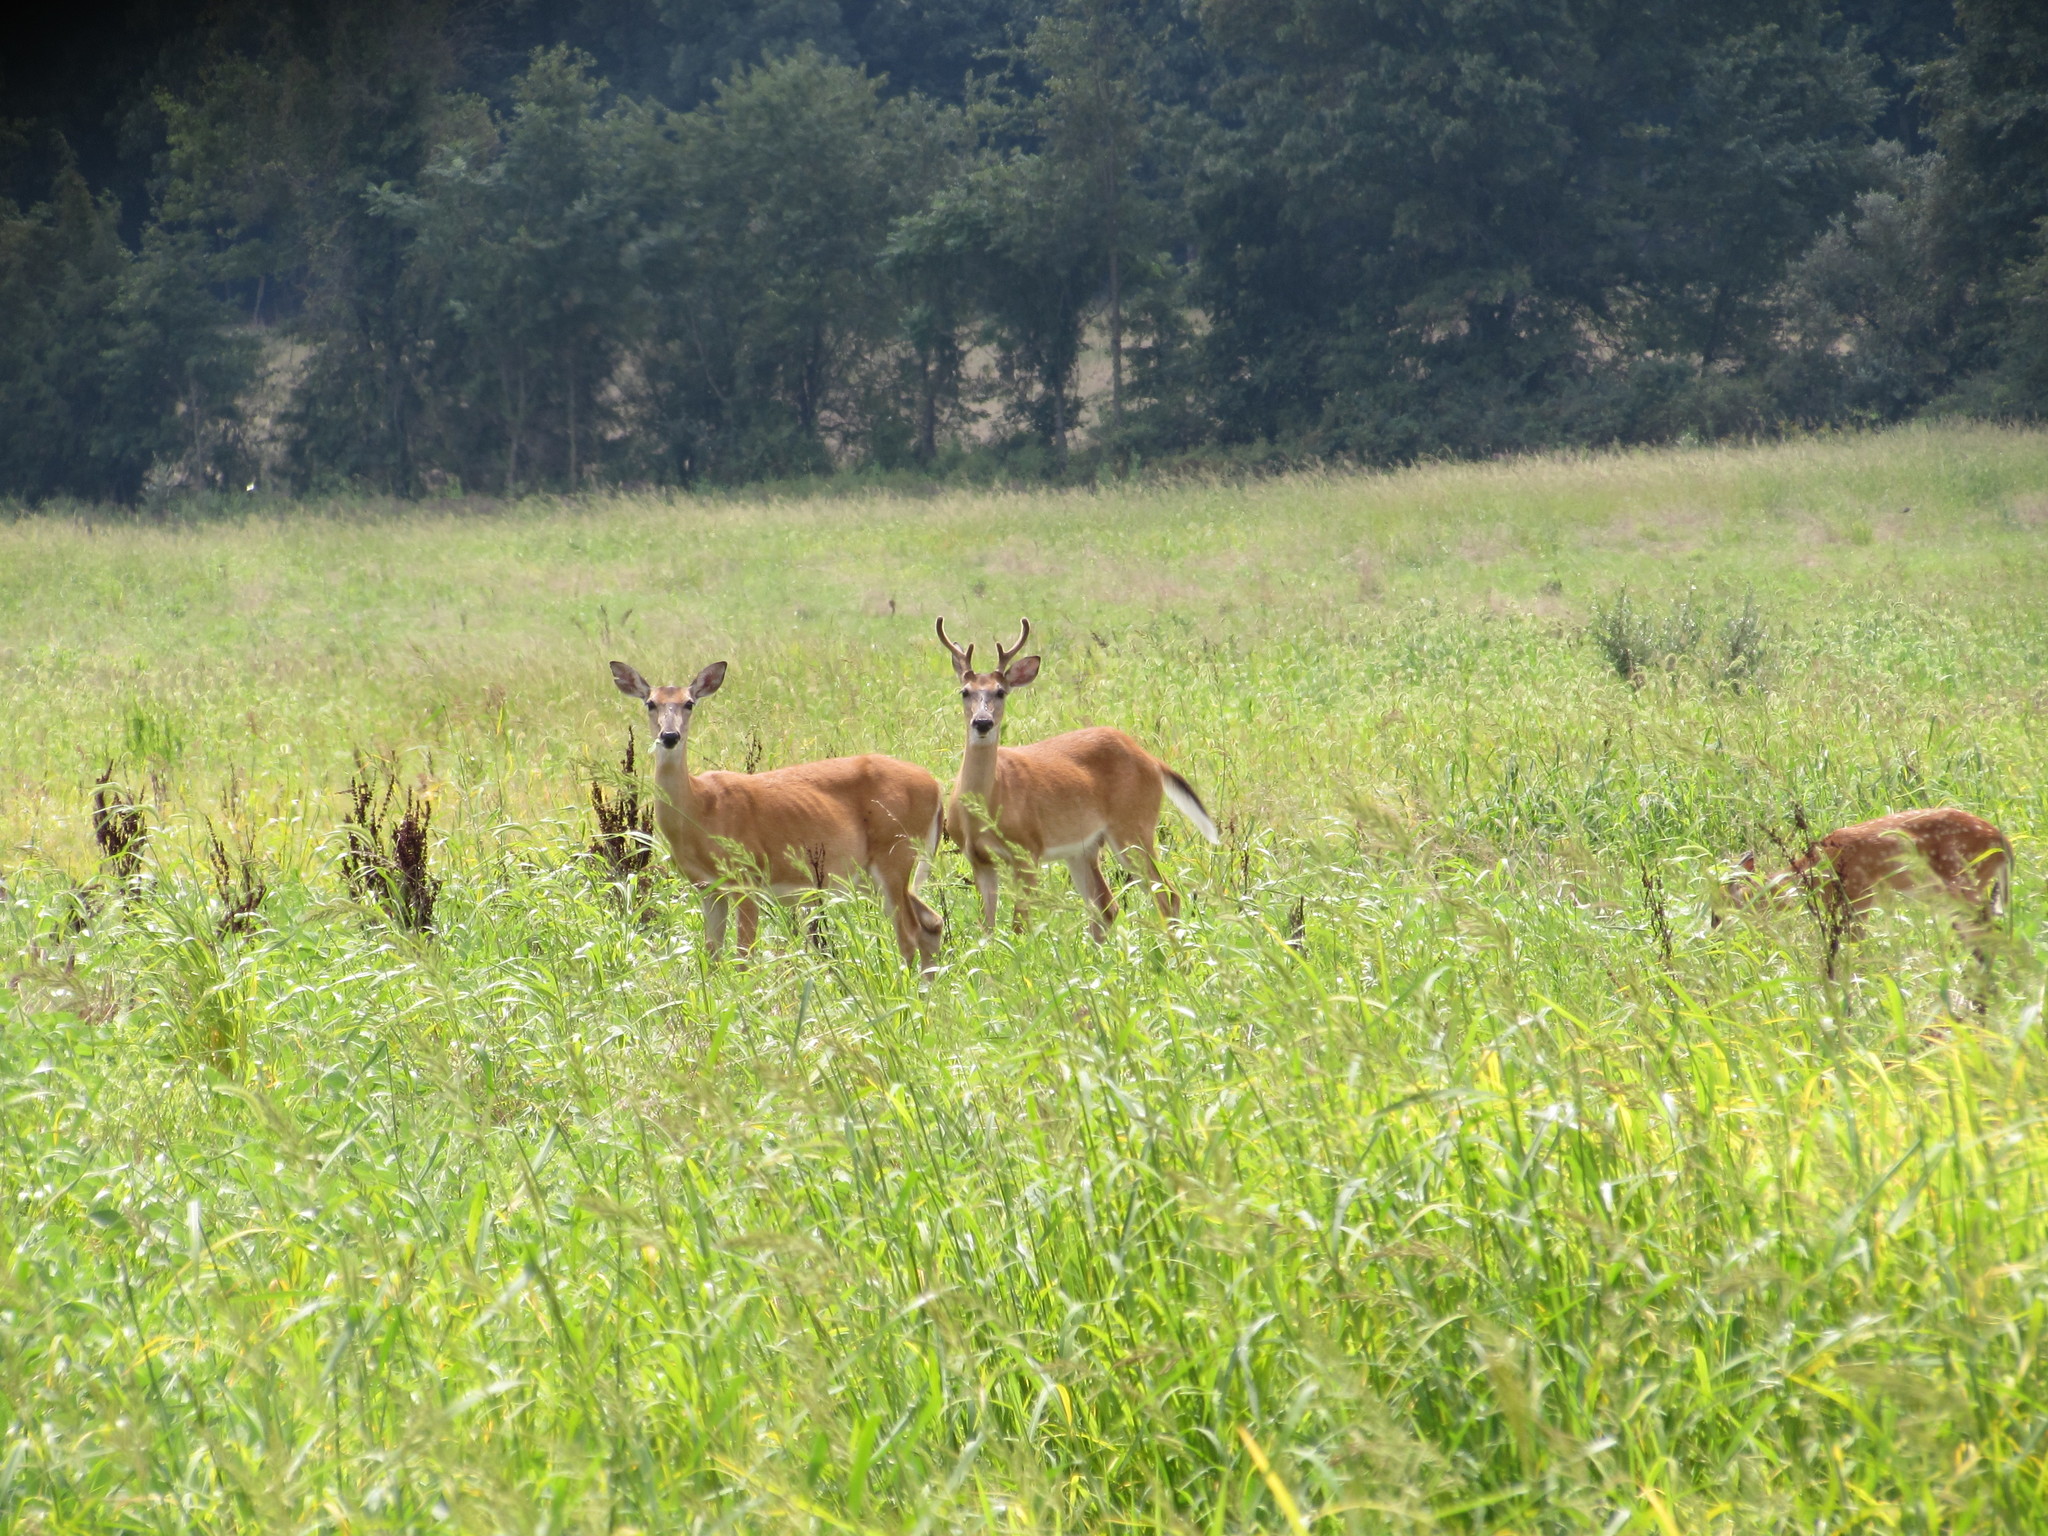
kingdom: Animalia
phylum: Chordata
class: Mammalia
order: Artiodactyla
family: Cervidae
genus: Odocoileus
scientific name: Odocoileus virginianus
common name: White-tailed deer
